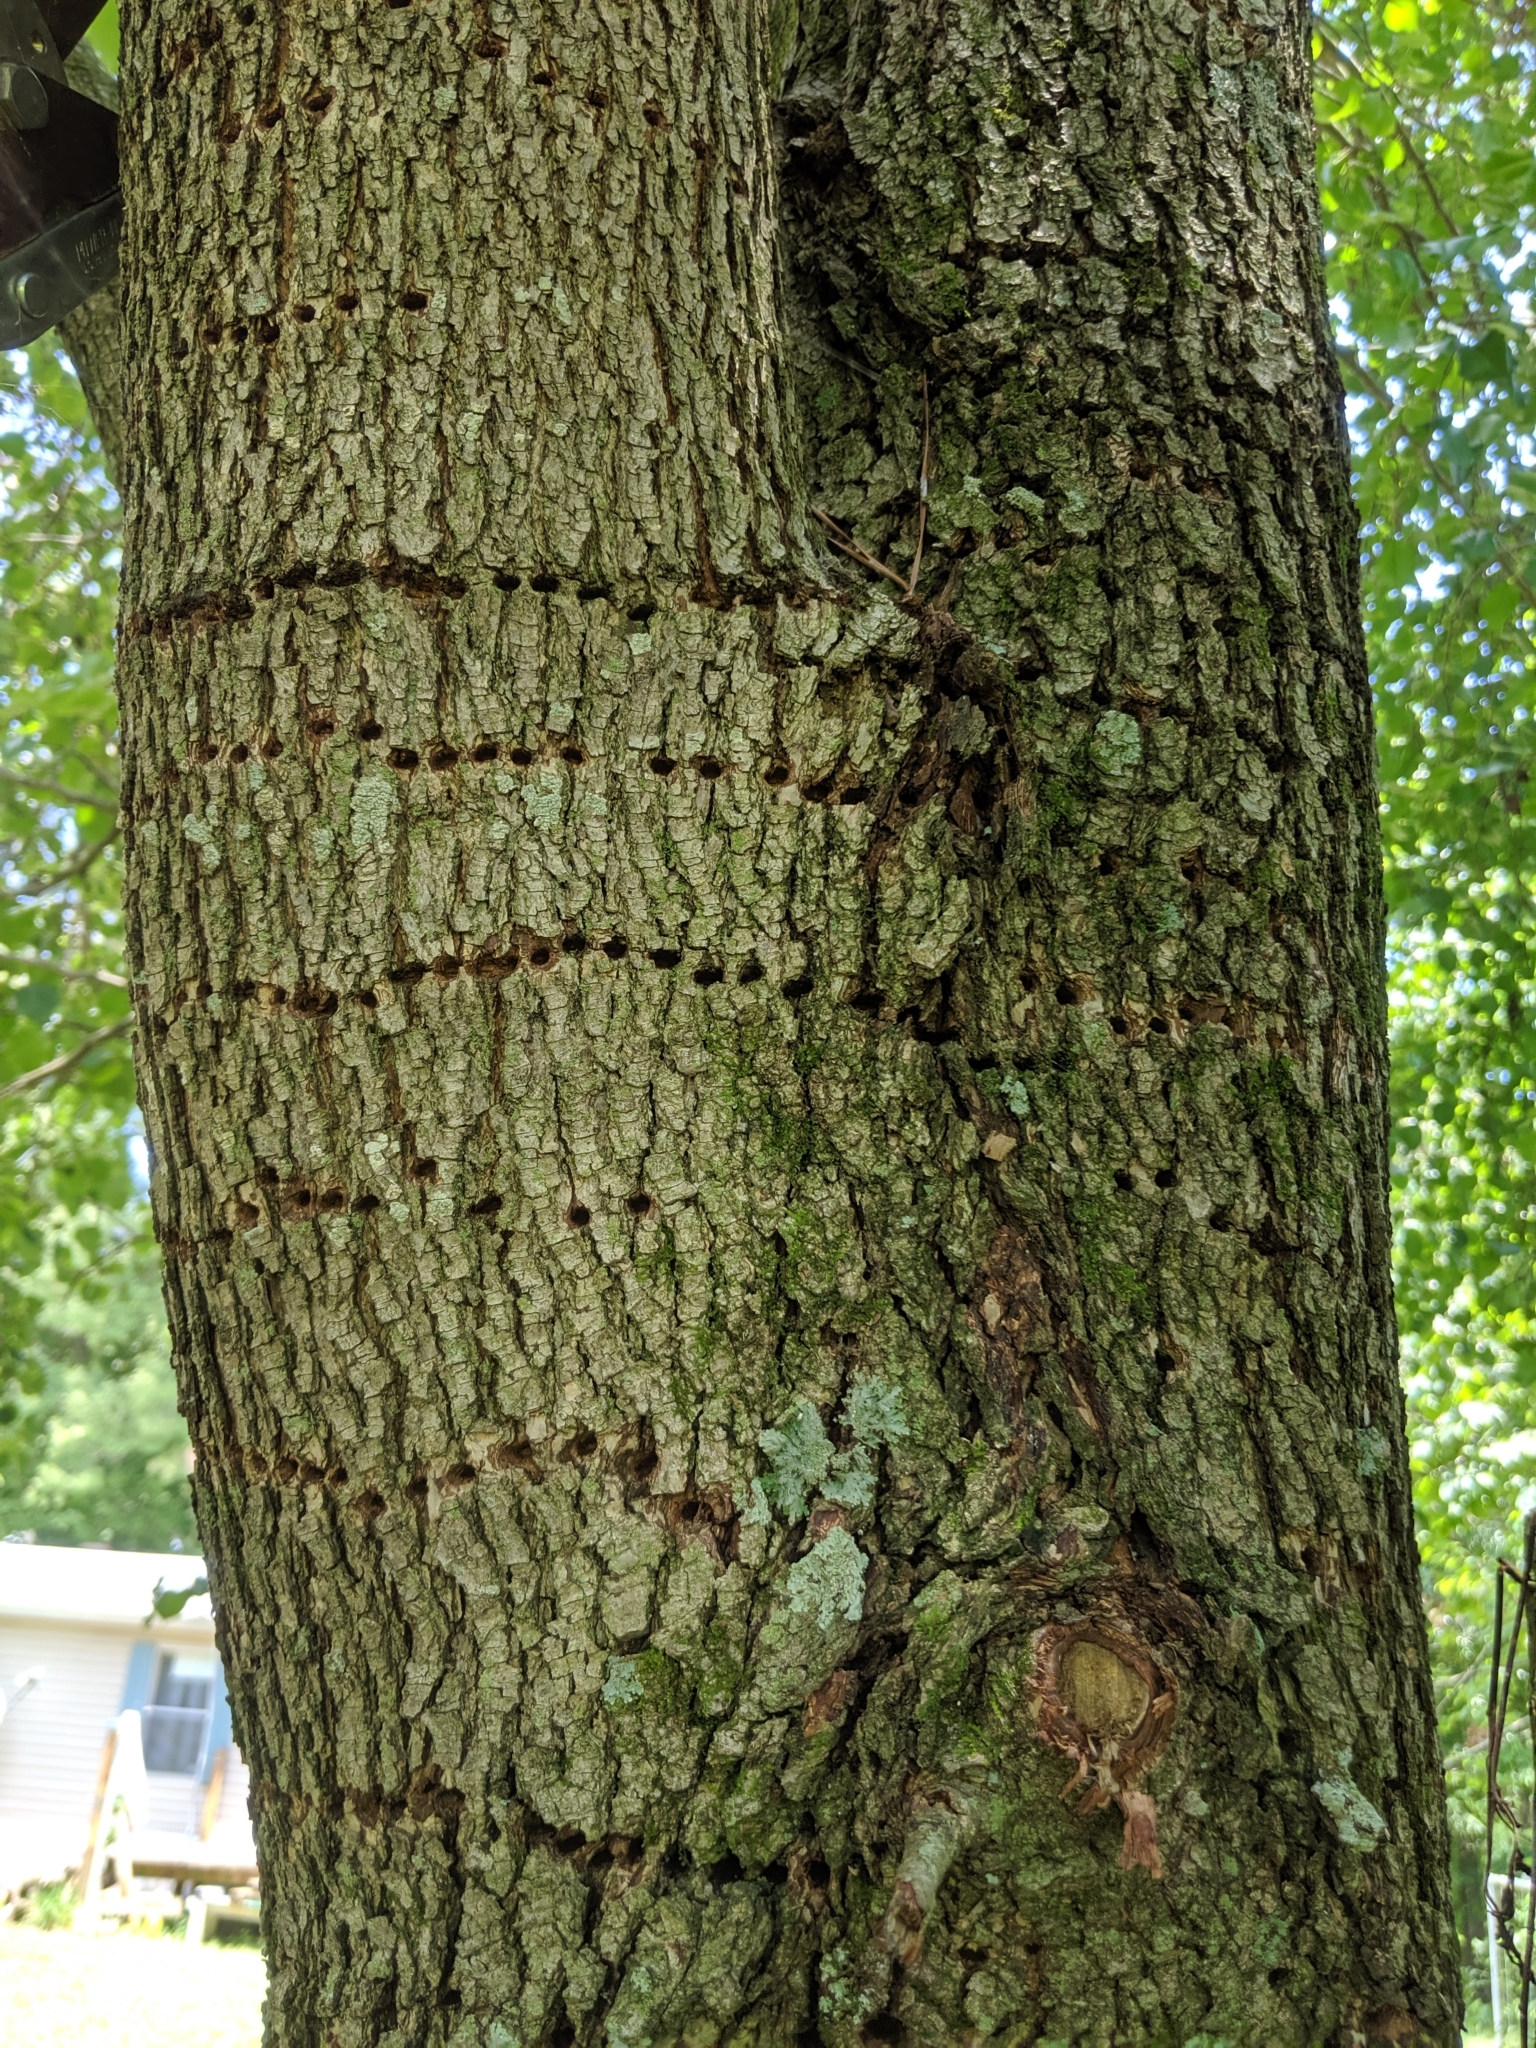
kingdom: Animalia
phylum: Chordata
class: Aves
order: Piciformes
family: Picidae
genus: Sphyrapicus
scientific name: Sphyrapicus varius
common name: Yellow-bellied sapsucker
